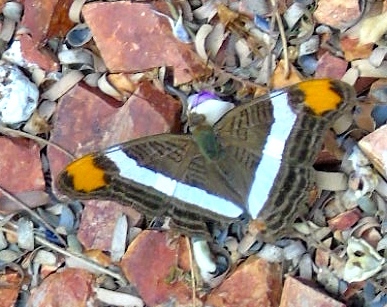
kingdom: Animalia
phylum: Arthropoda
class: Insecta
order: Lepidoptera
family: Nymphalidae
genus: Limenitis
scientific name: Limenitis fessonia
